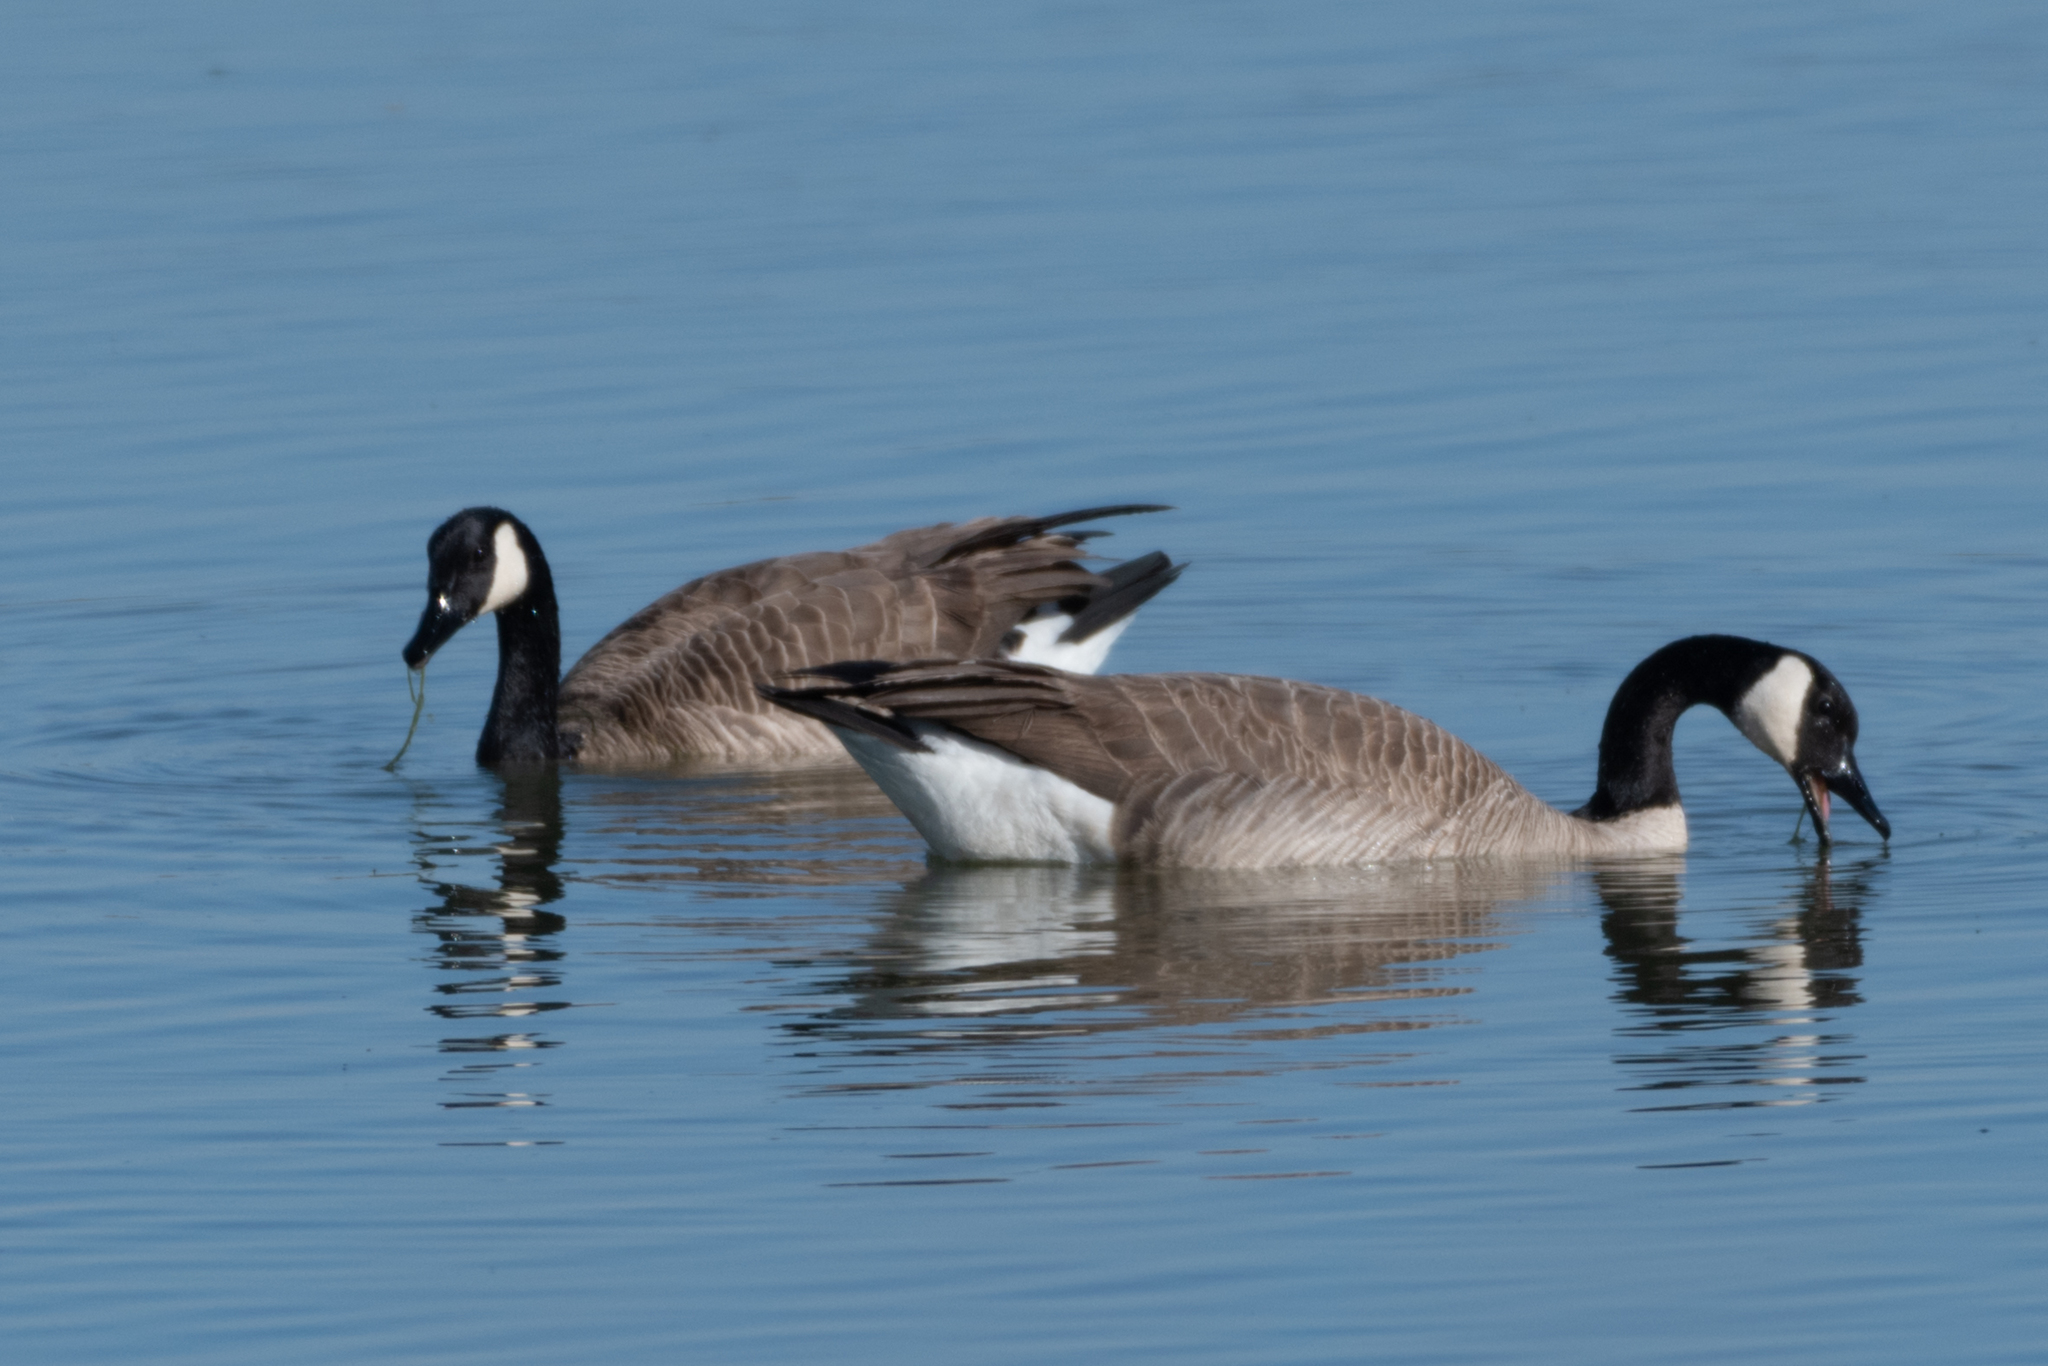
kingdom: Animalia
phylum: Chordata
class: Aves
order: Anseriformes
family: Anatidae
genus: Branta
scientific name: Branta canadensis
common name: Canada goose
